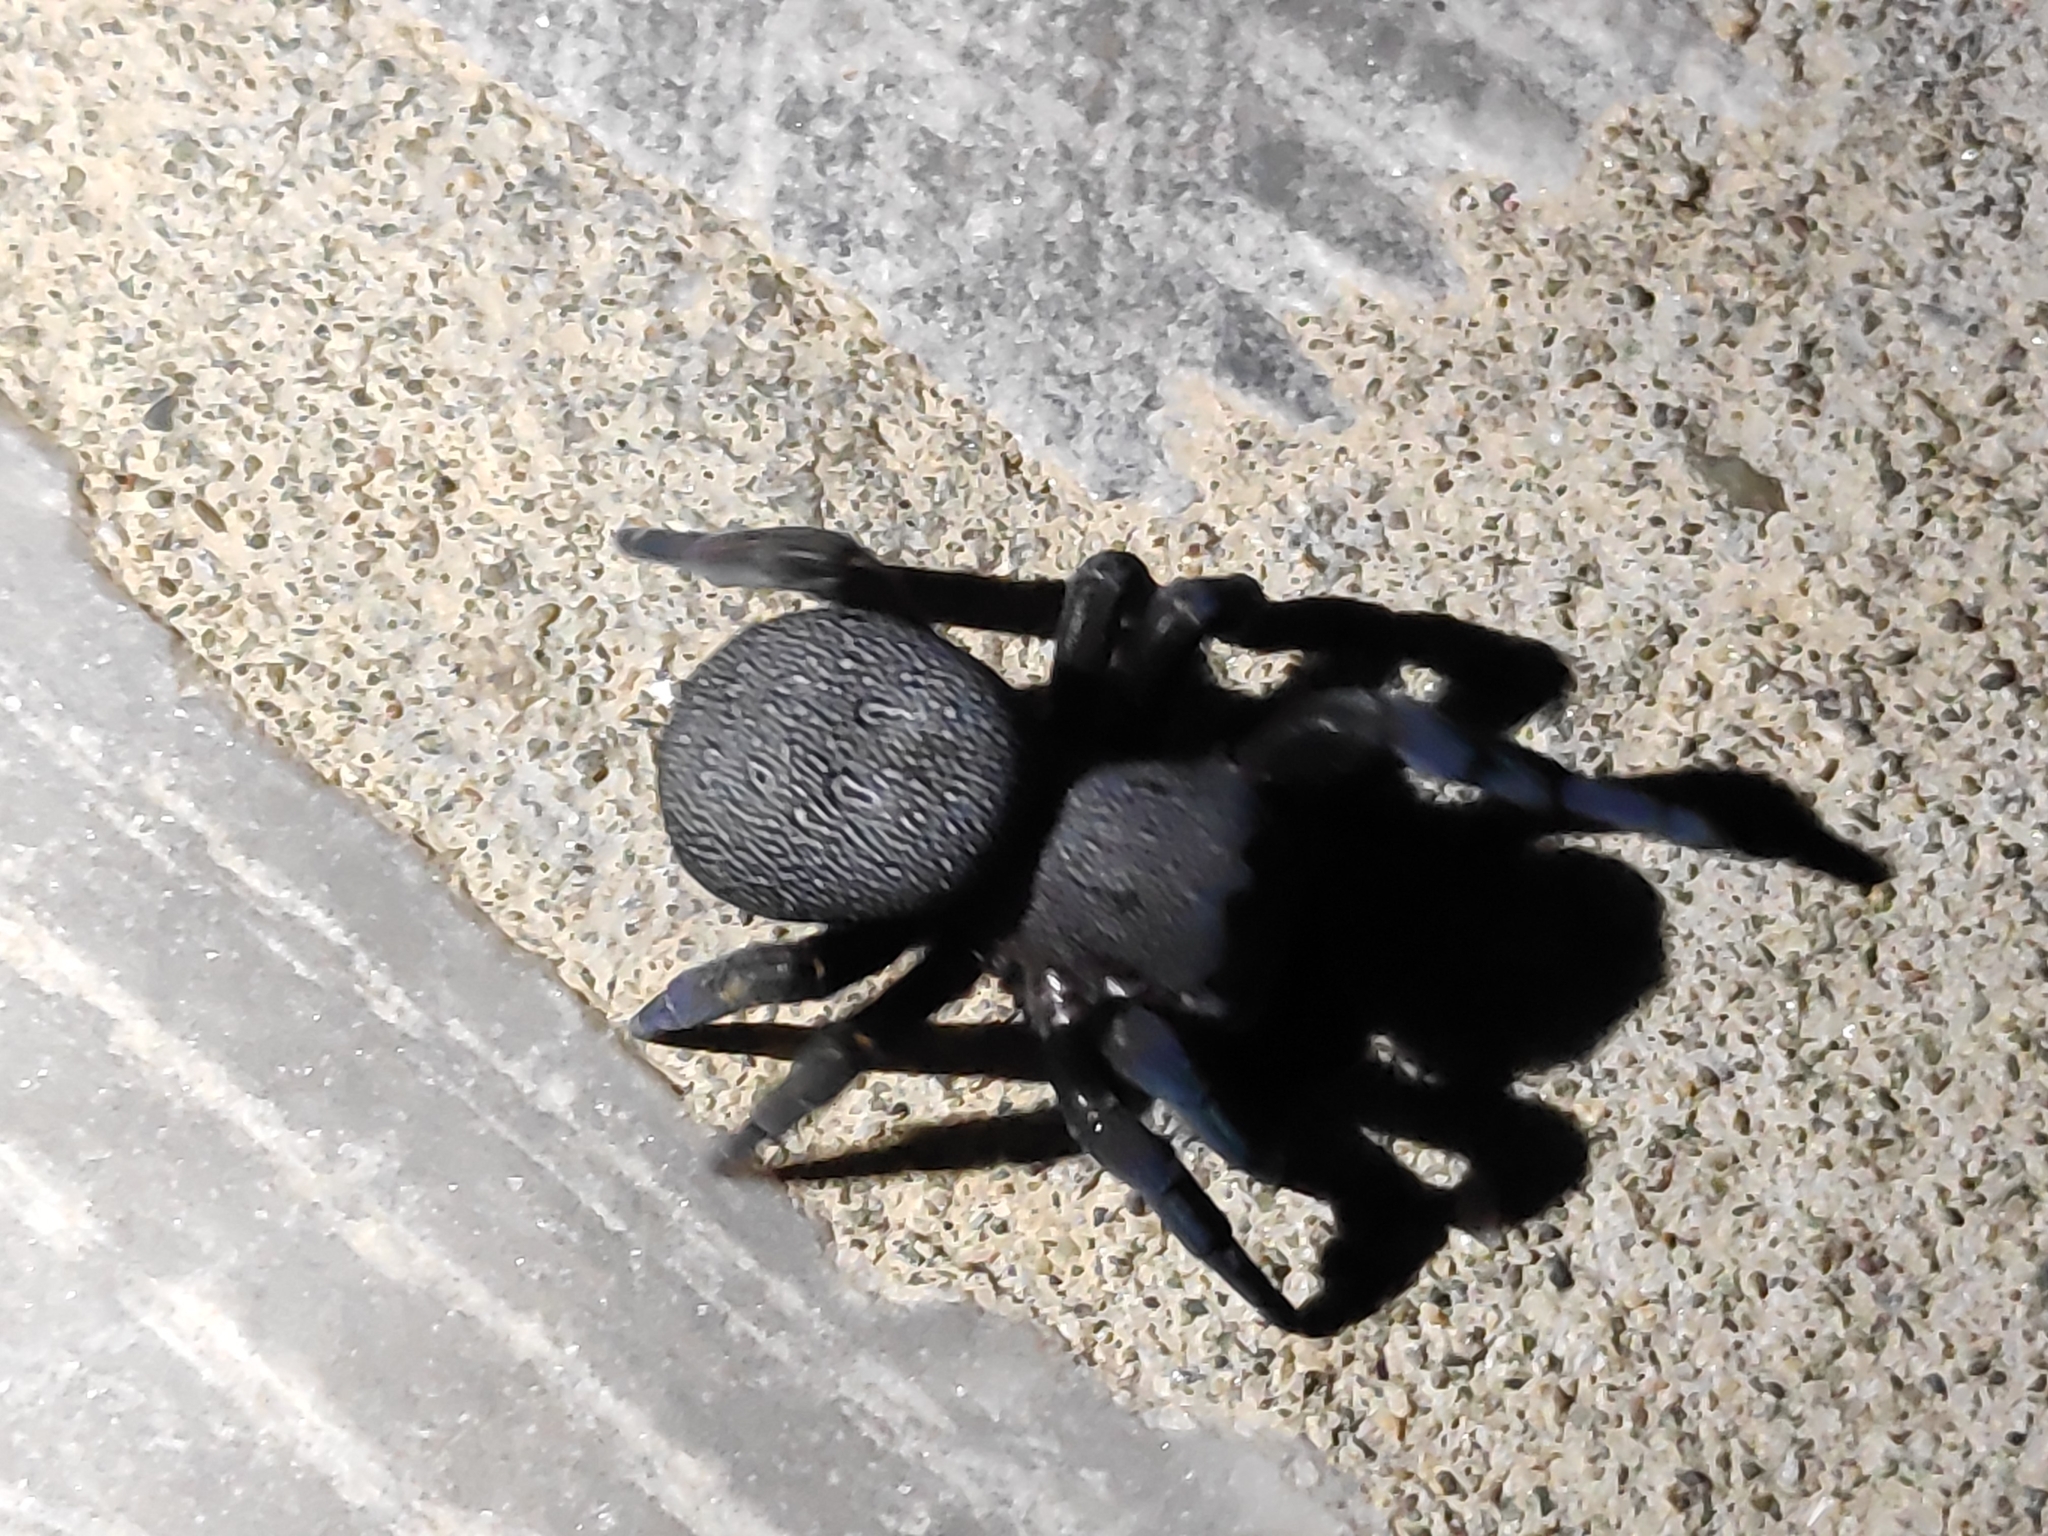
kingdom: Animalia
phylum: Arthropoda
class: Arachnida
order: Araneae
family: Eresidae
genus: Eresus
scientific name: Eresus
